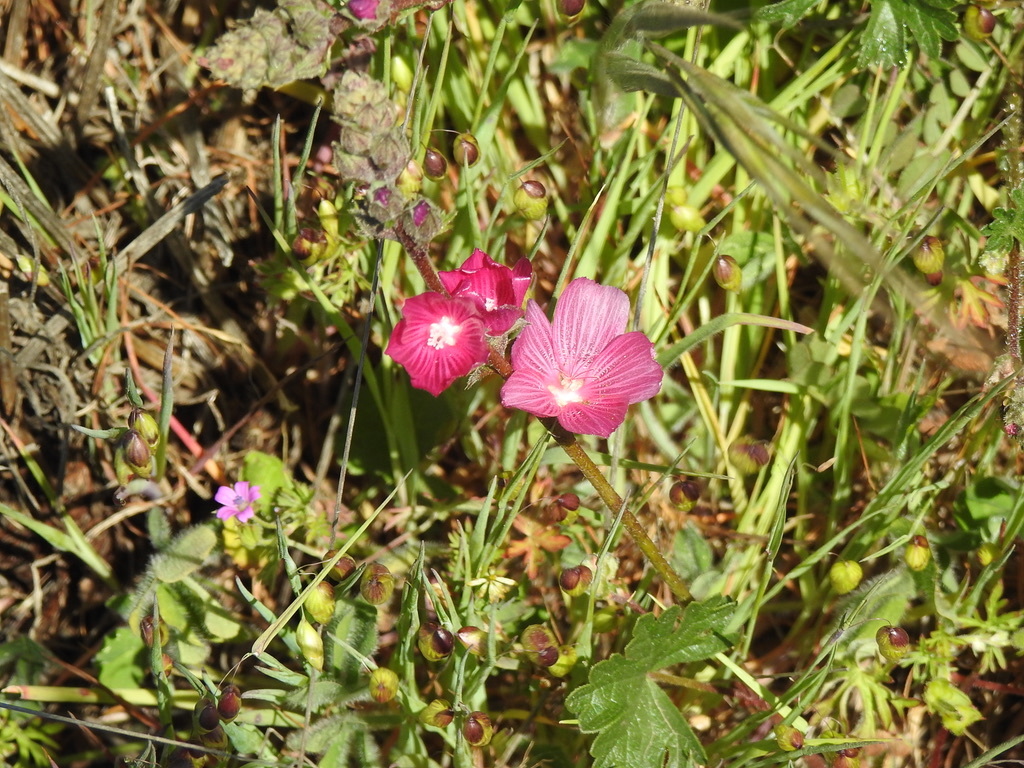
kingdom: Plantae
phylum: Tracheophyta
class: Magnoliopsida
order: Malvales
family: Malvaceae
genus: Sidalcea
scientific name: Sidalcea malviflora
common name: Greek mallow
